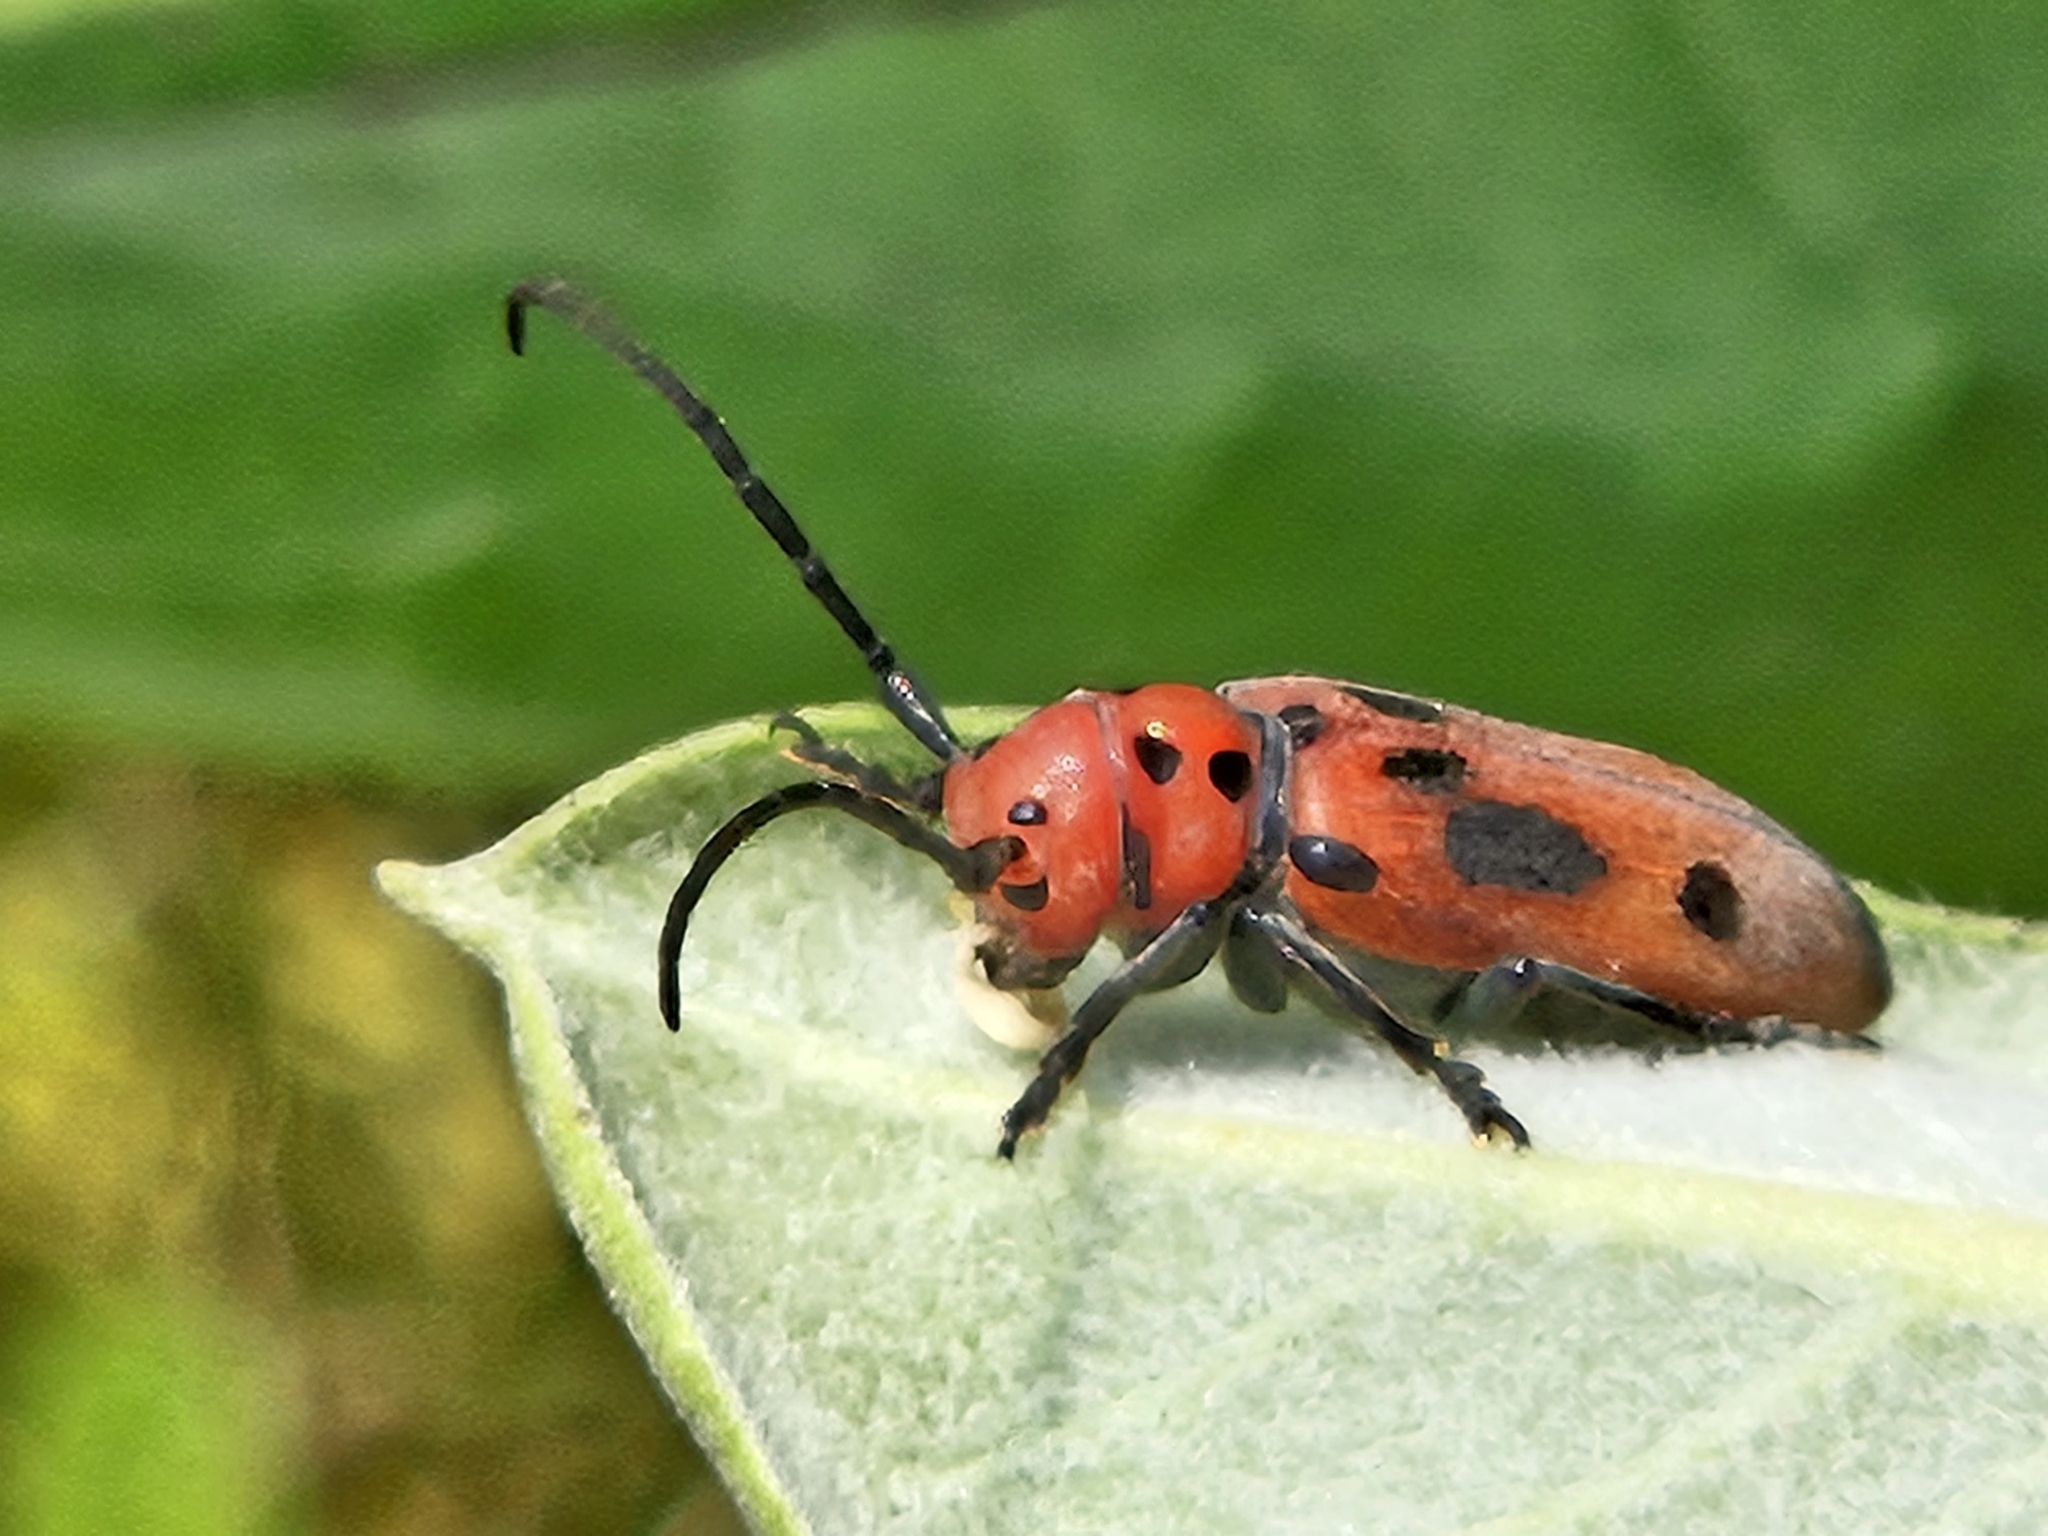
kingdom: Animalia
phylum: Arthropoda
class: Insecta
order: Coleoptera
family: Cerambycidae
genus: Tetraopes
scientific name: Tetraopes tetrophthalmus
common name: Red milkweed beetle
